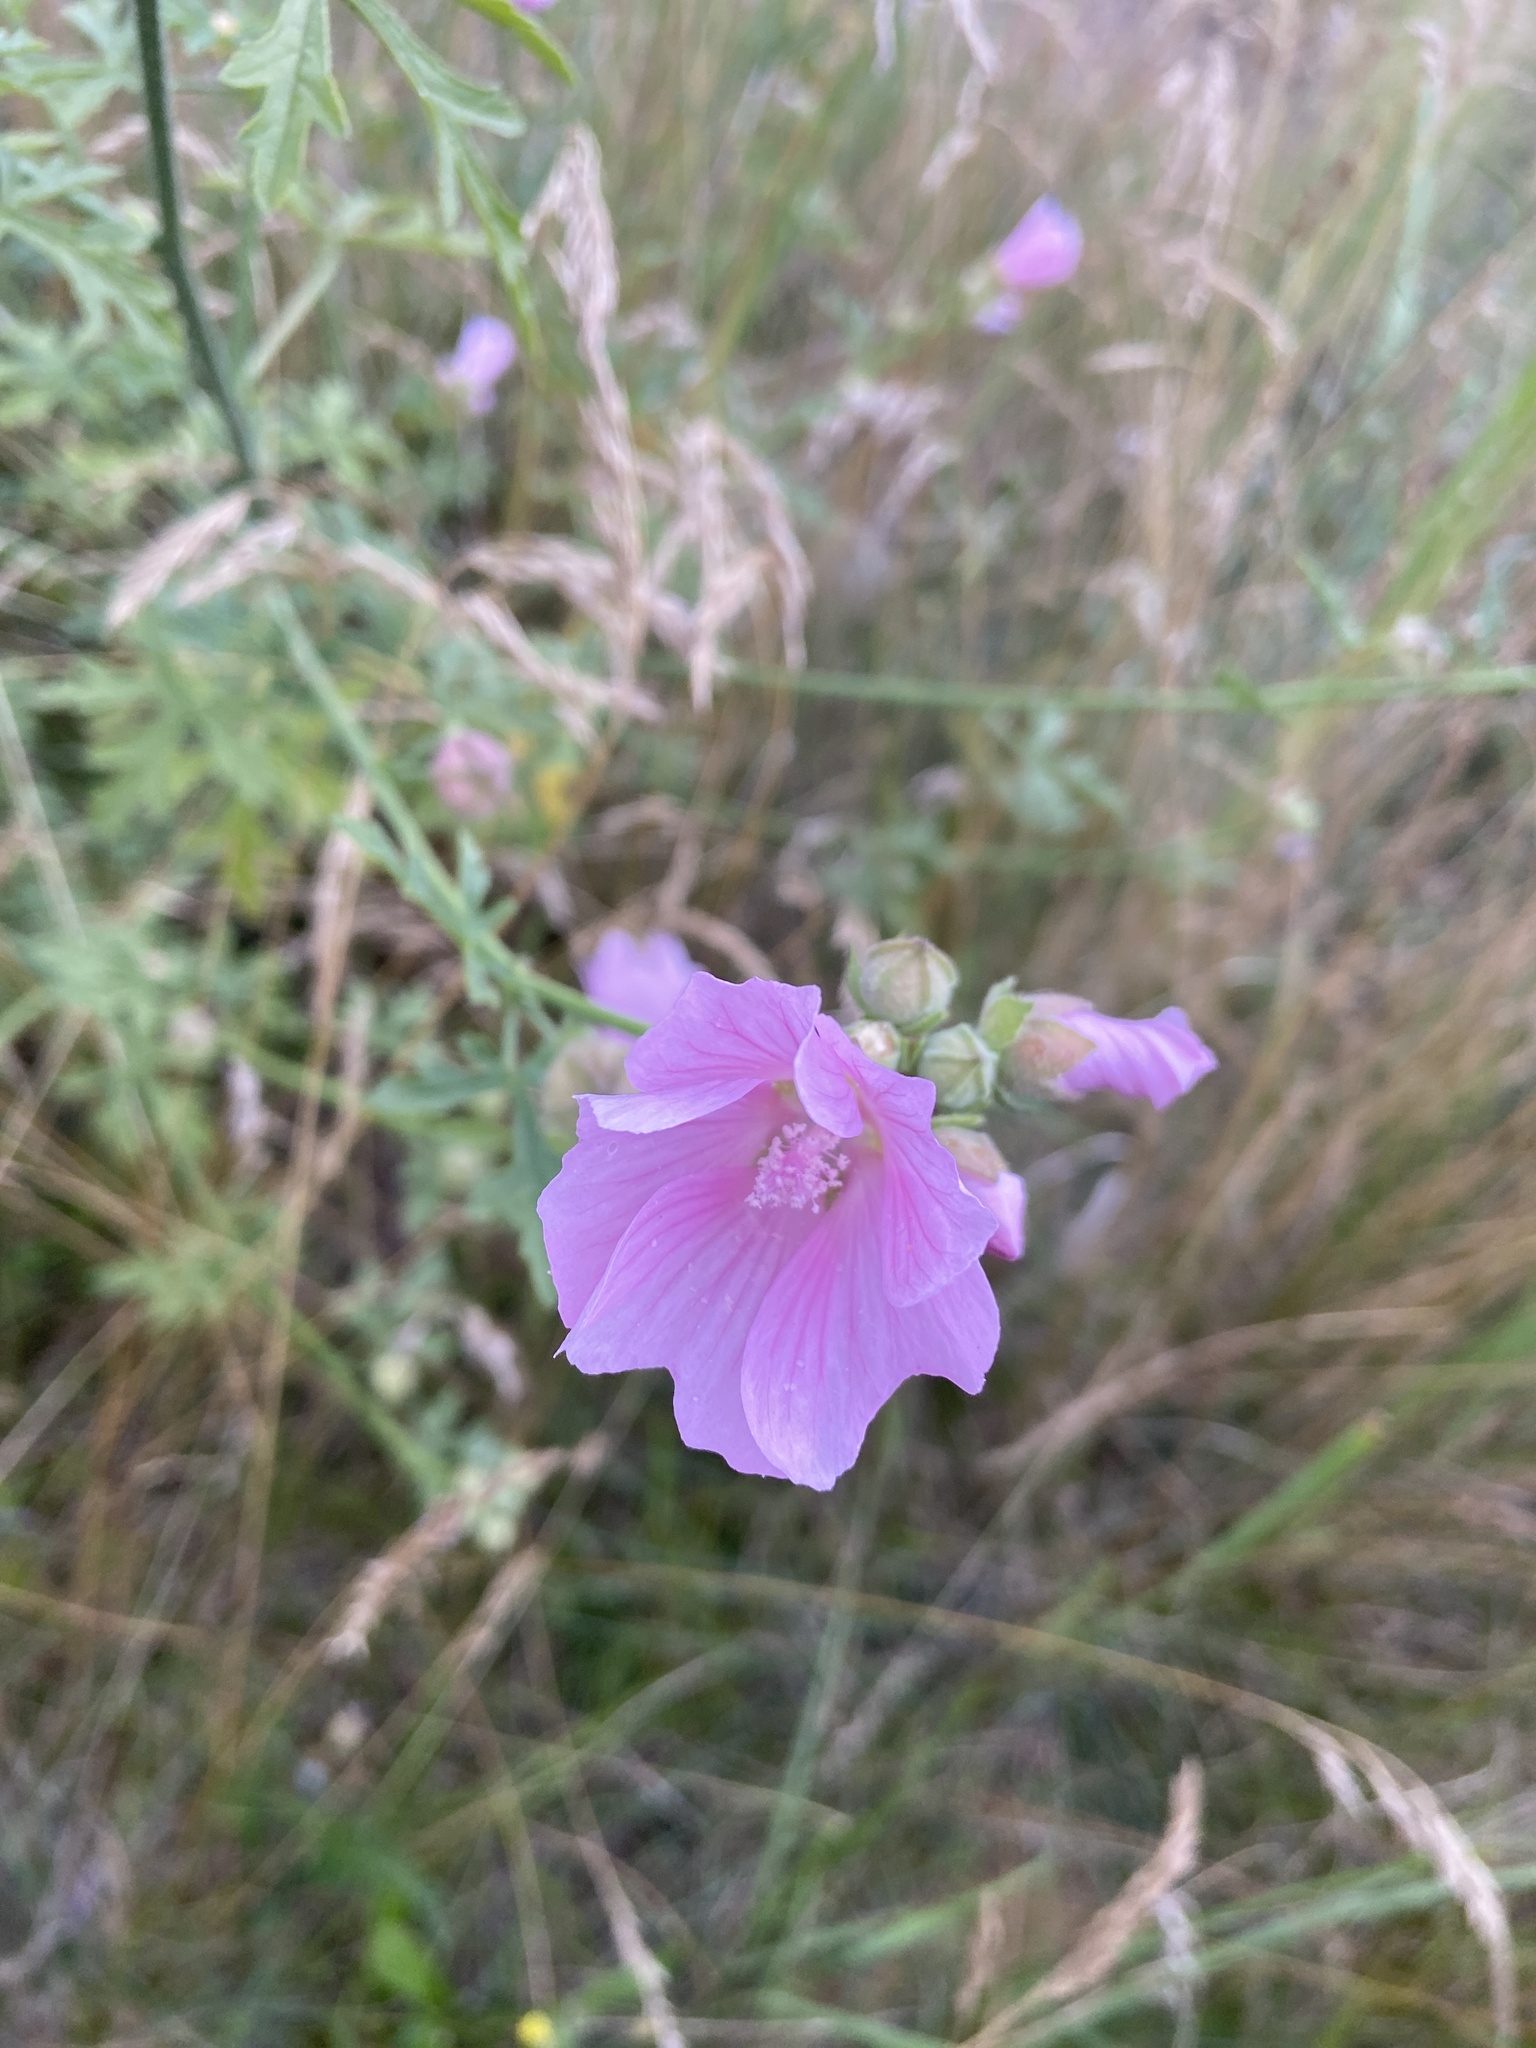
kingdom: Plantae
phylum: Tracheophyta
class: Magnoliopsida
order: Malvales
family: Malvaceae
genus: Malva
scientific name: Malva alcea
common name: Greater musk-mallow
